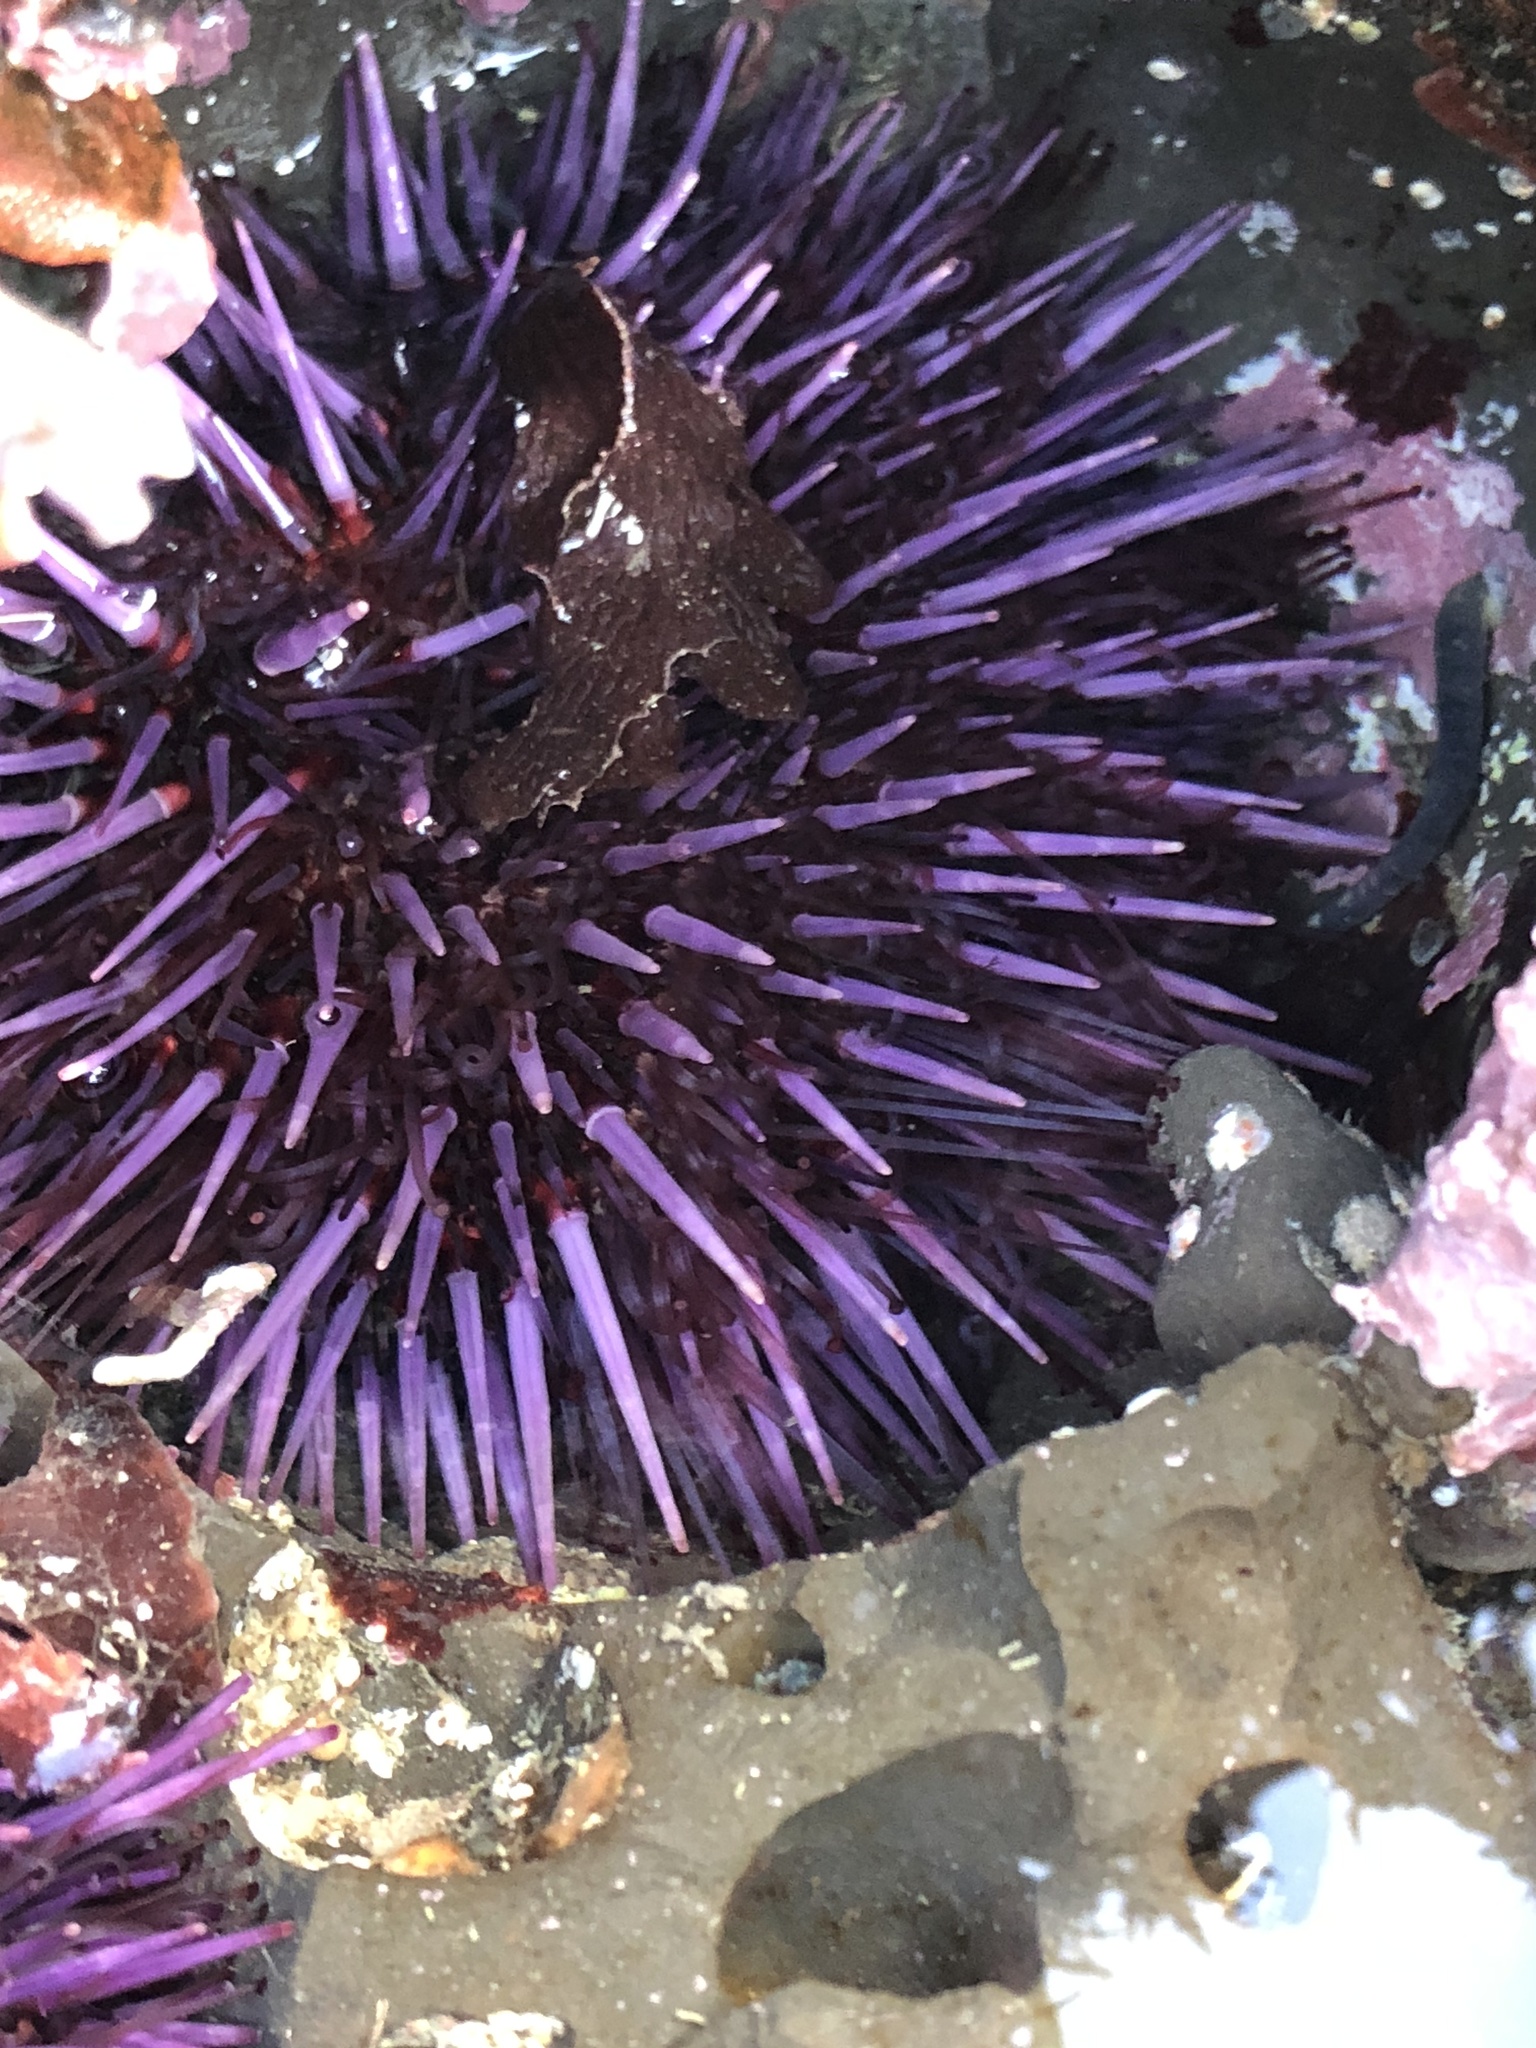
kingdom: Animalia
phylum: Echinodermata
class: Echinoidea
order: Camarodonta
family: Strongylocentrotidae
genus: Strongylocentrotus
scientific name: Strongylocentrotus purpuratus
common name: Purple sea urchin
